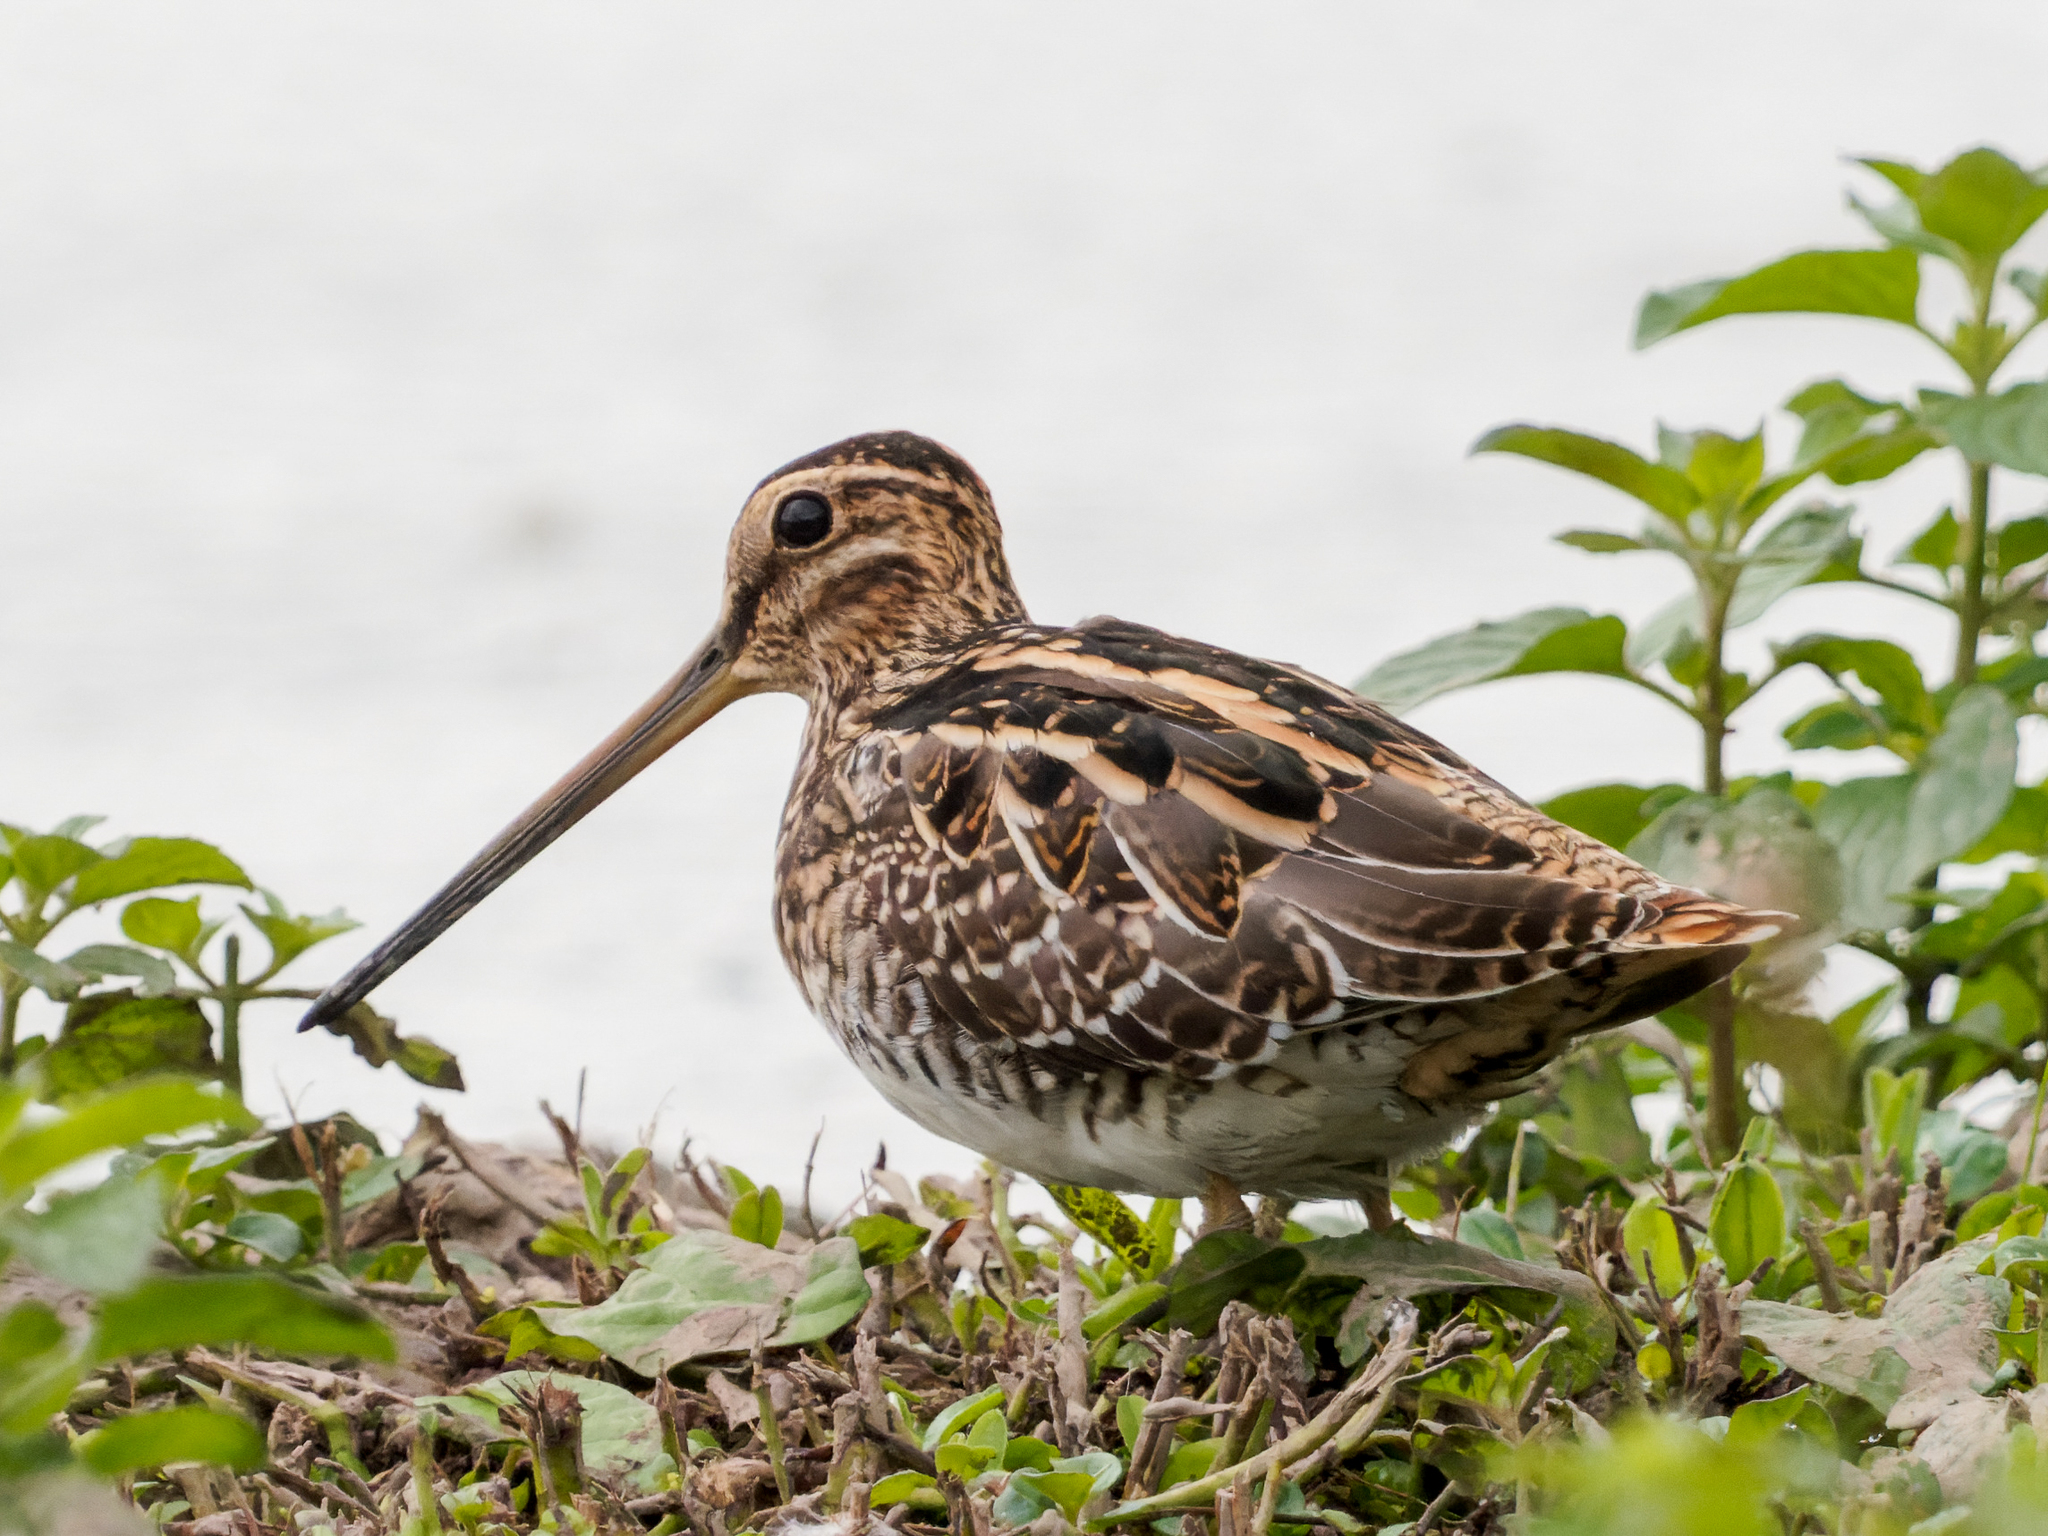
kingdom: Animalia
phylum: Chordata
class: Aves
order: Charadriiformes
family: Scolopacidae
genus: Gallinago
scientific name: Gallinago gallinago
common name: Common snipe
